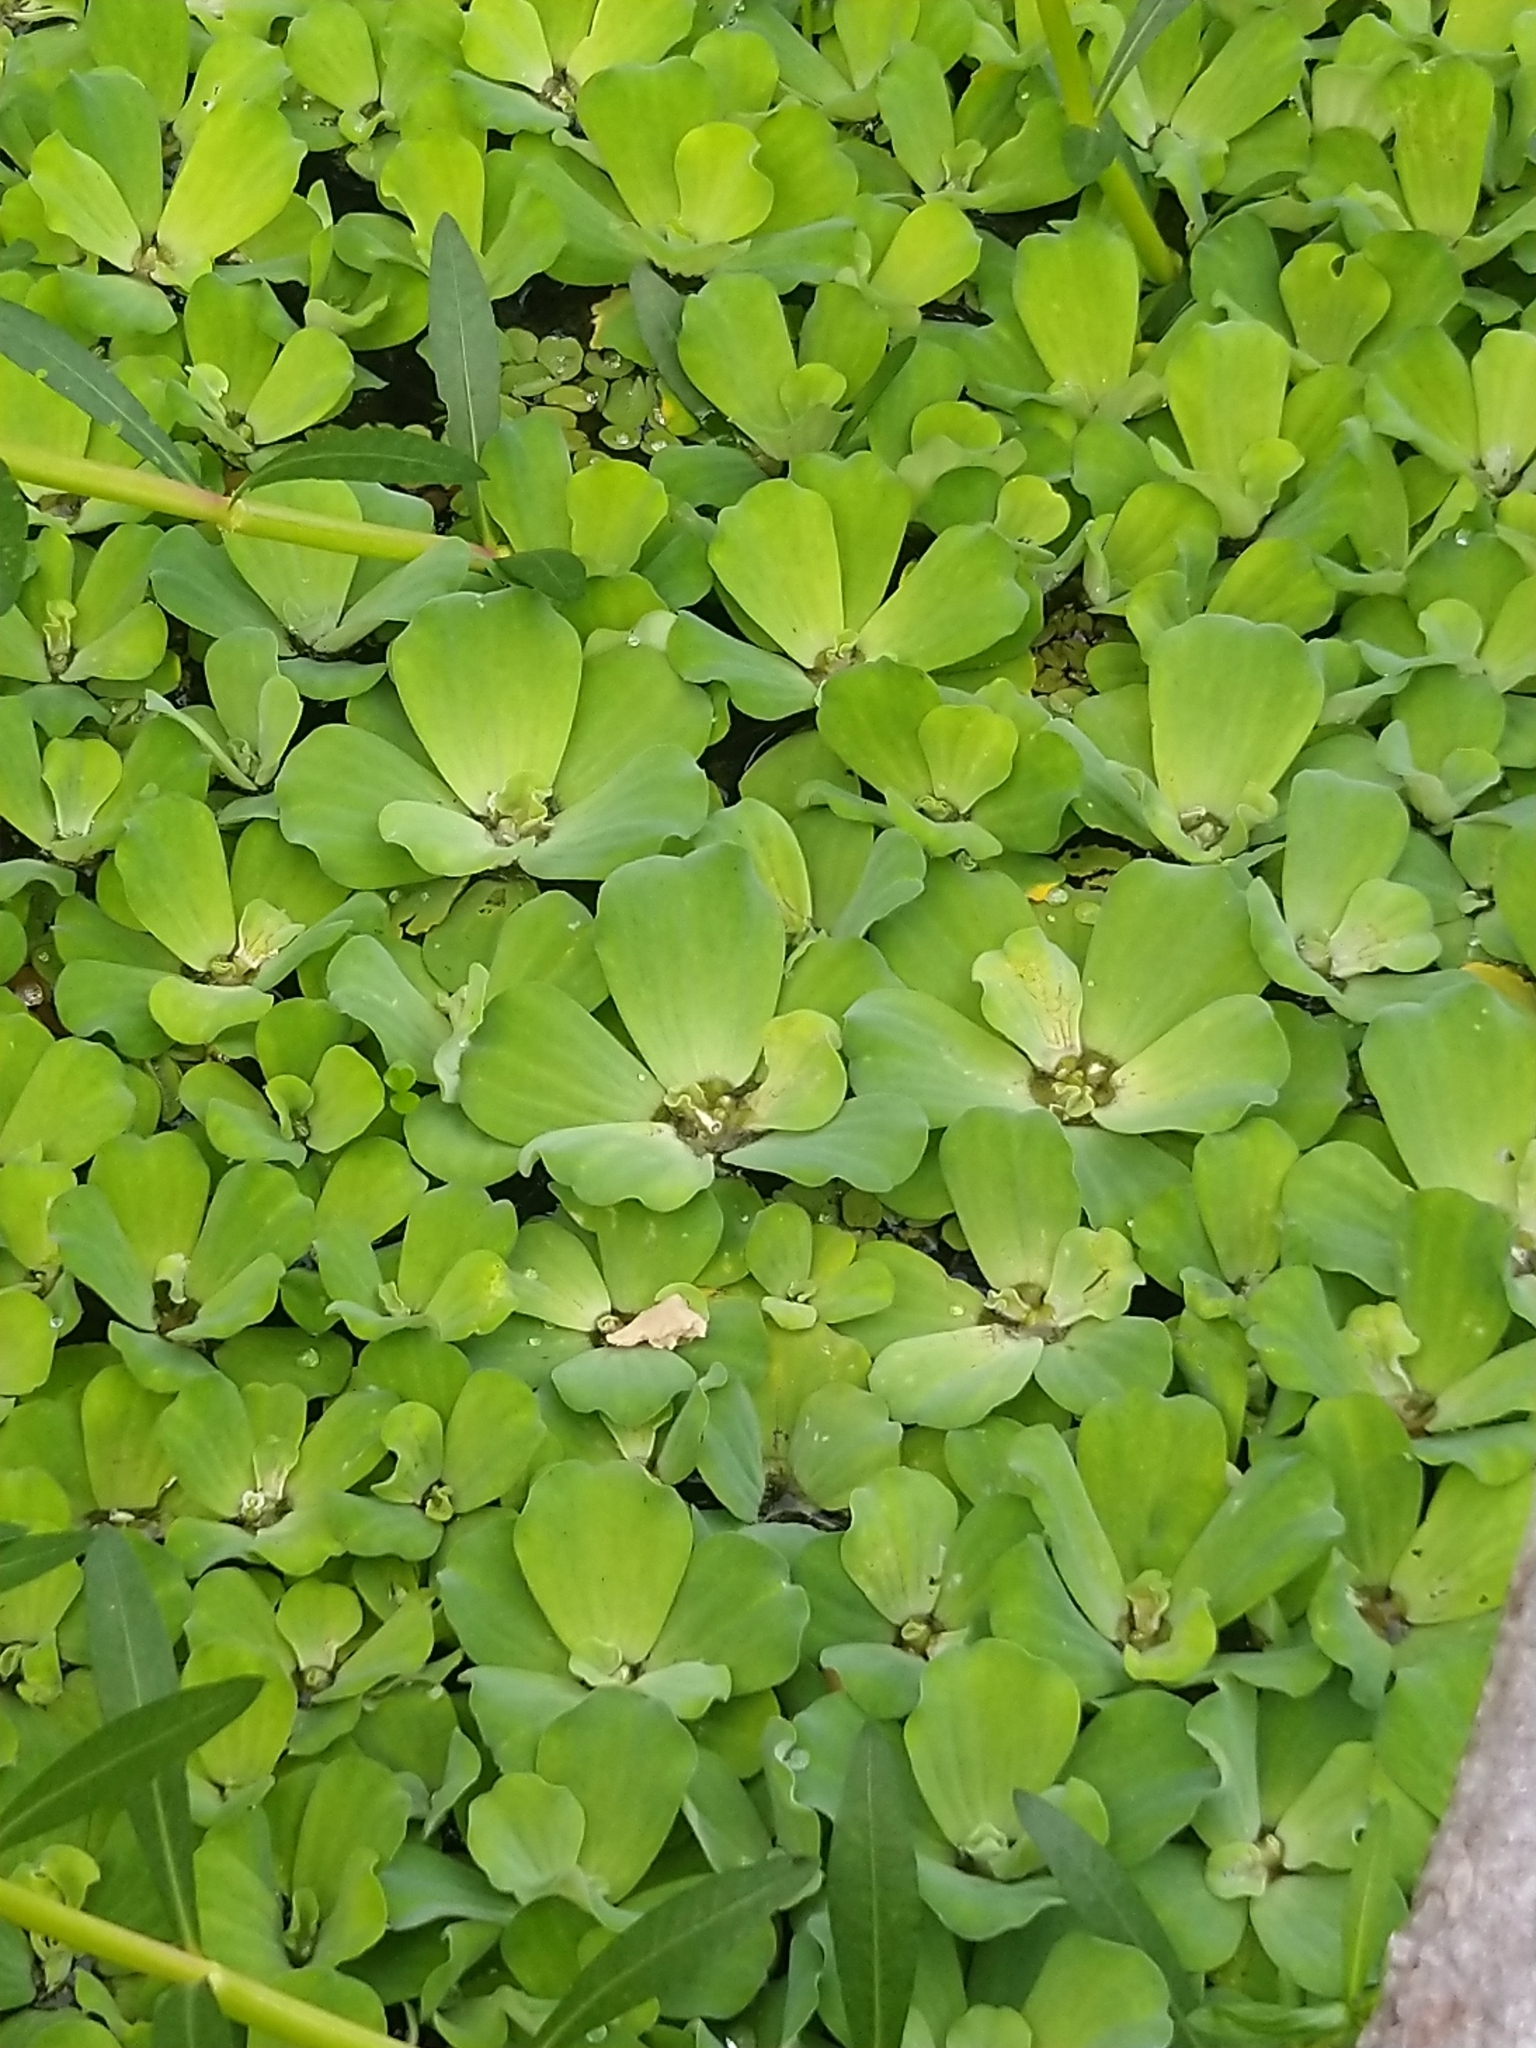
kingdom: Plantae
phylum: Tracheophyta
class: Liliopsida
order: Alismatales
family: Araceae
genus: Pistia
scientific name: Pistia stratiotes
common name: Water lettuce
